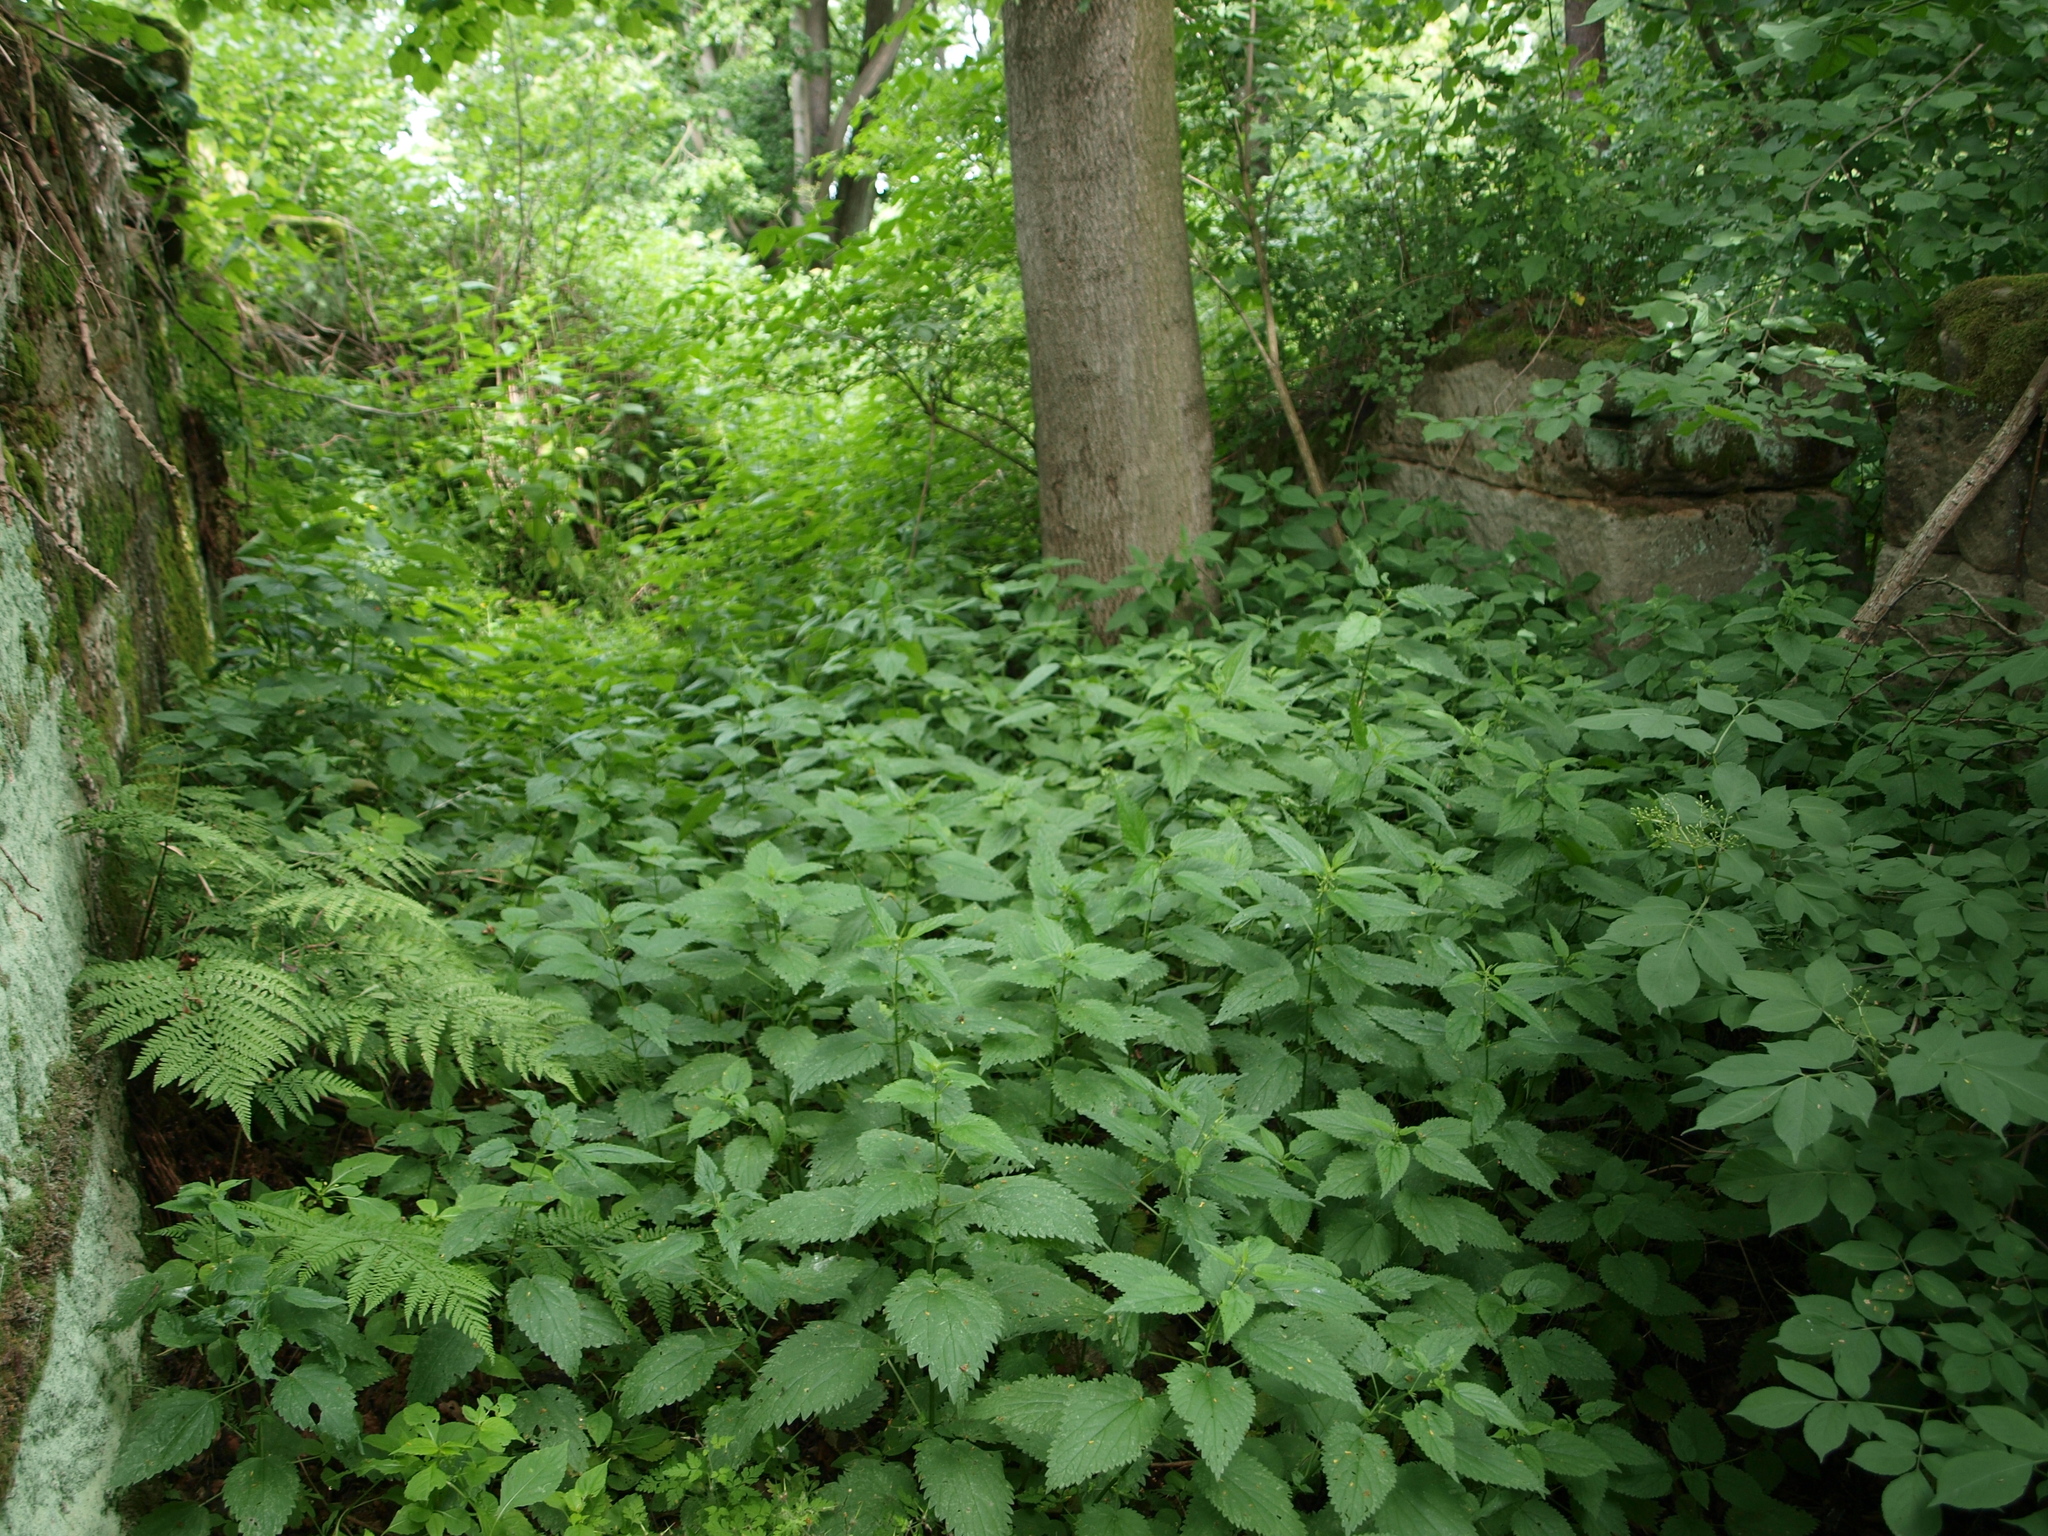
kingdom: Plantae
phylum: Tracheophyta
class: Magnoliopsida
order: Rosales
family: Urticaceae
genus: Urtica
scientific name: Urtica dioica
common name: Common nettle
